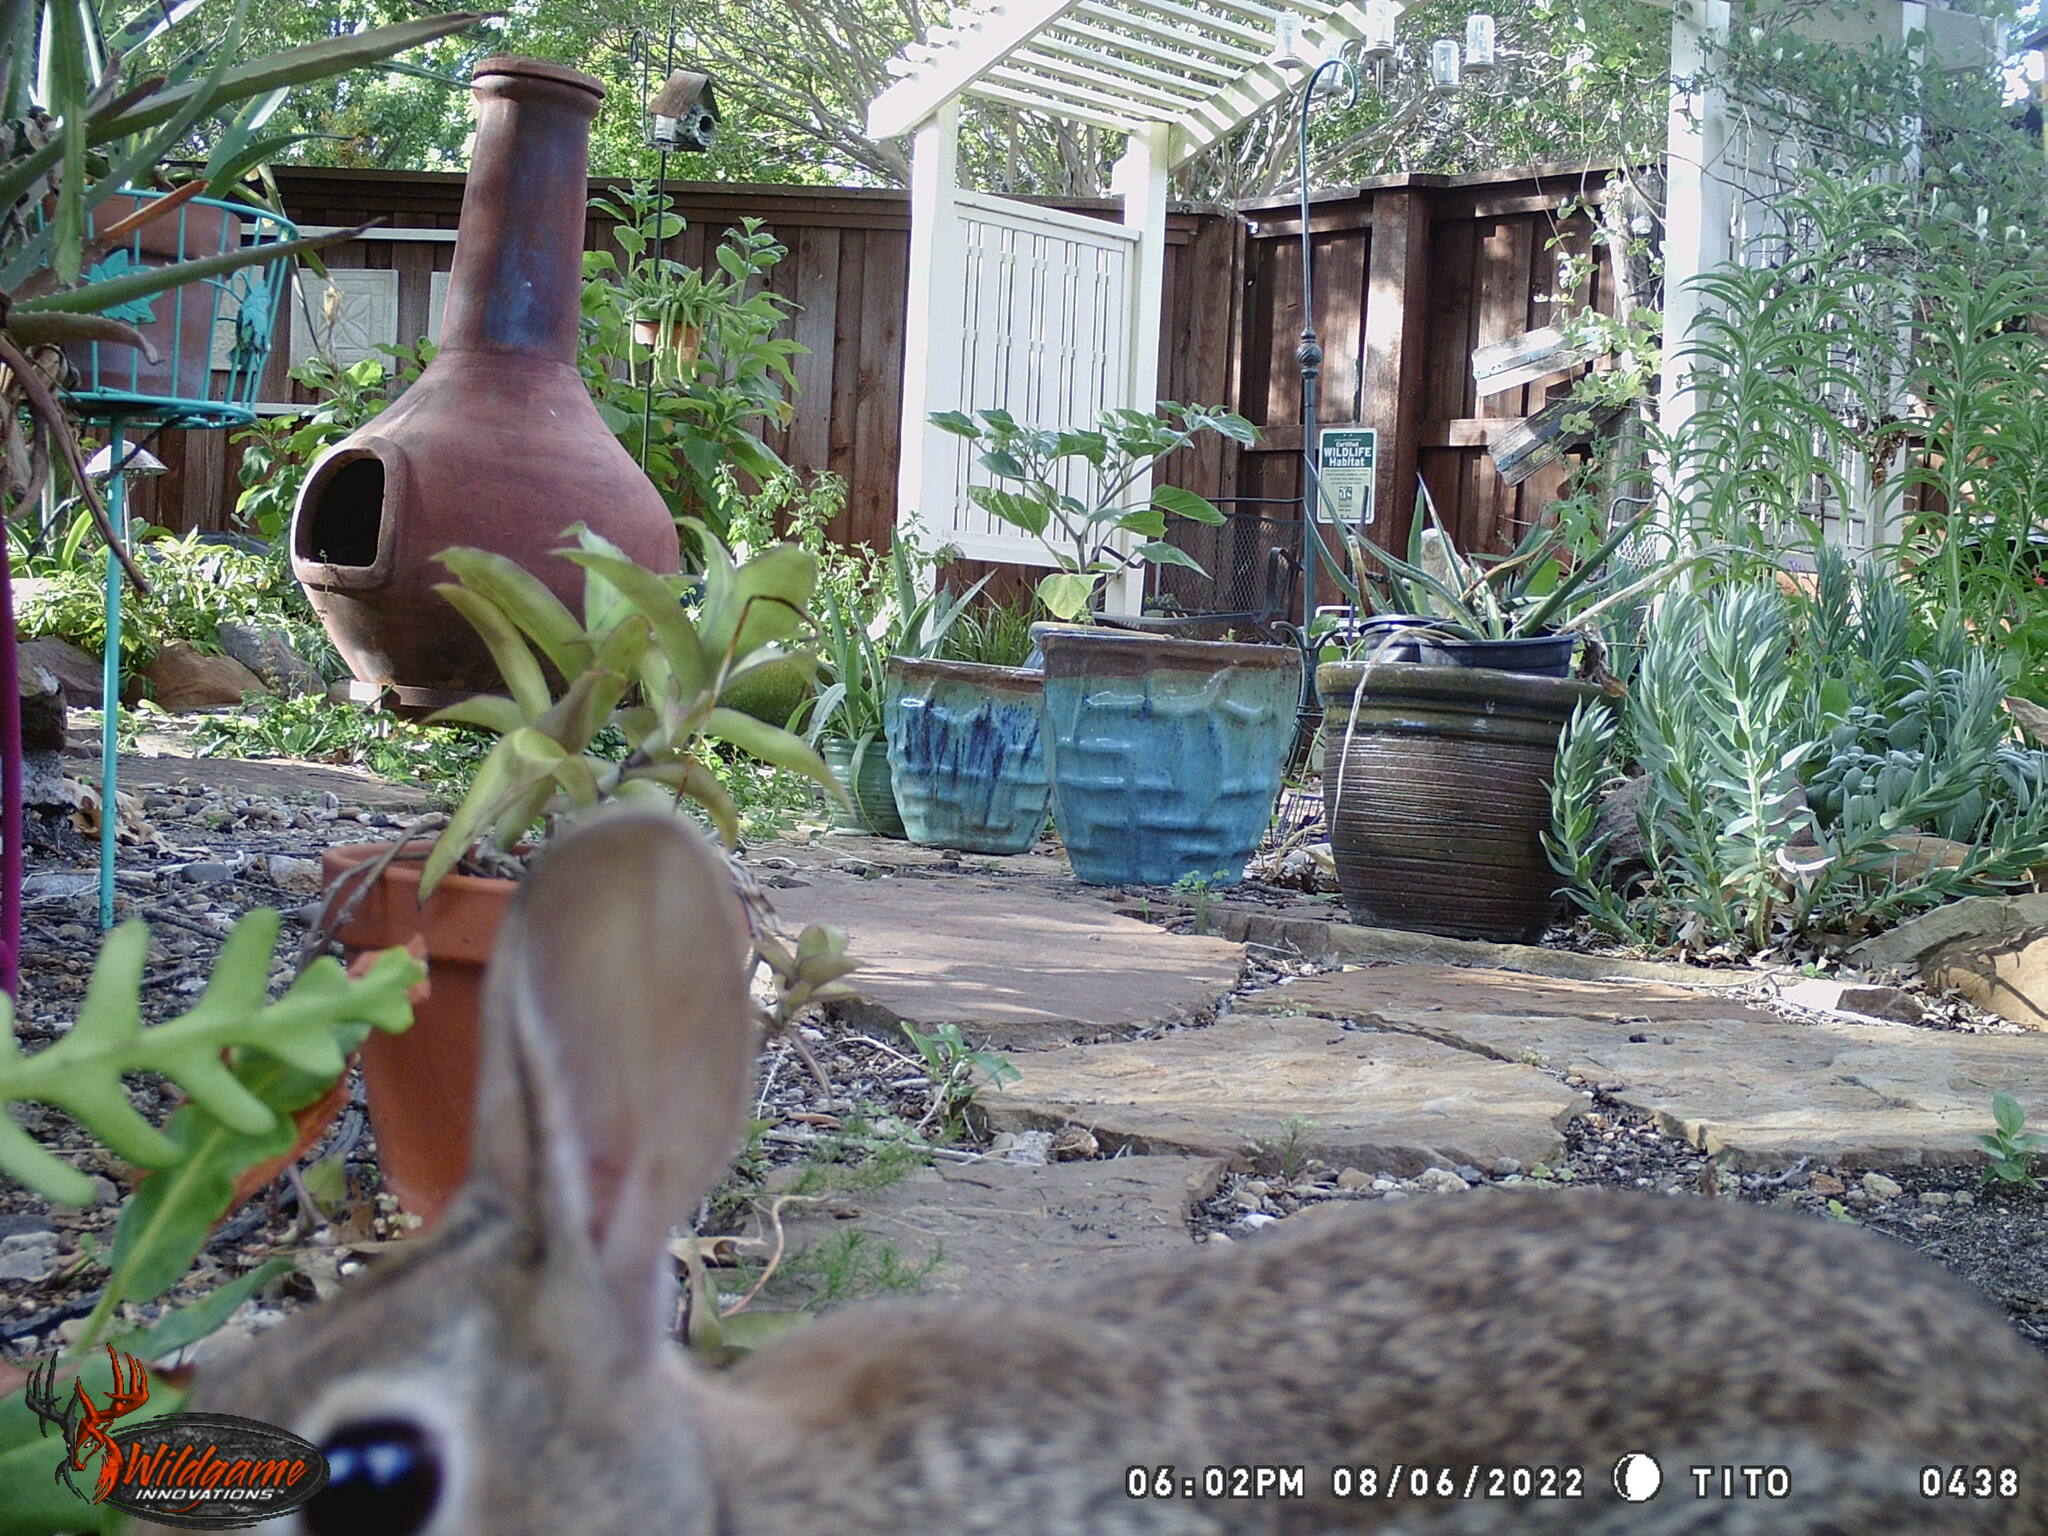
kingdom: Animalia
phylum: Chordata
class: Mammalia
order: Lagomorpha
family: Leporidae
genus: Sylvilagus
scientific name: Sylvilagus floridanus
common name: Eastern cottontail
